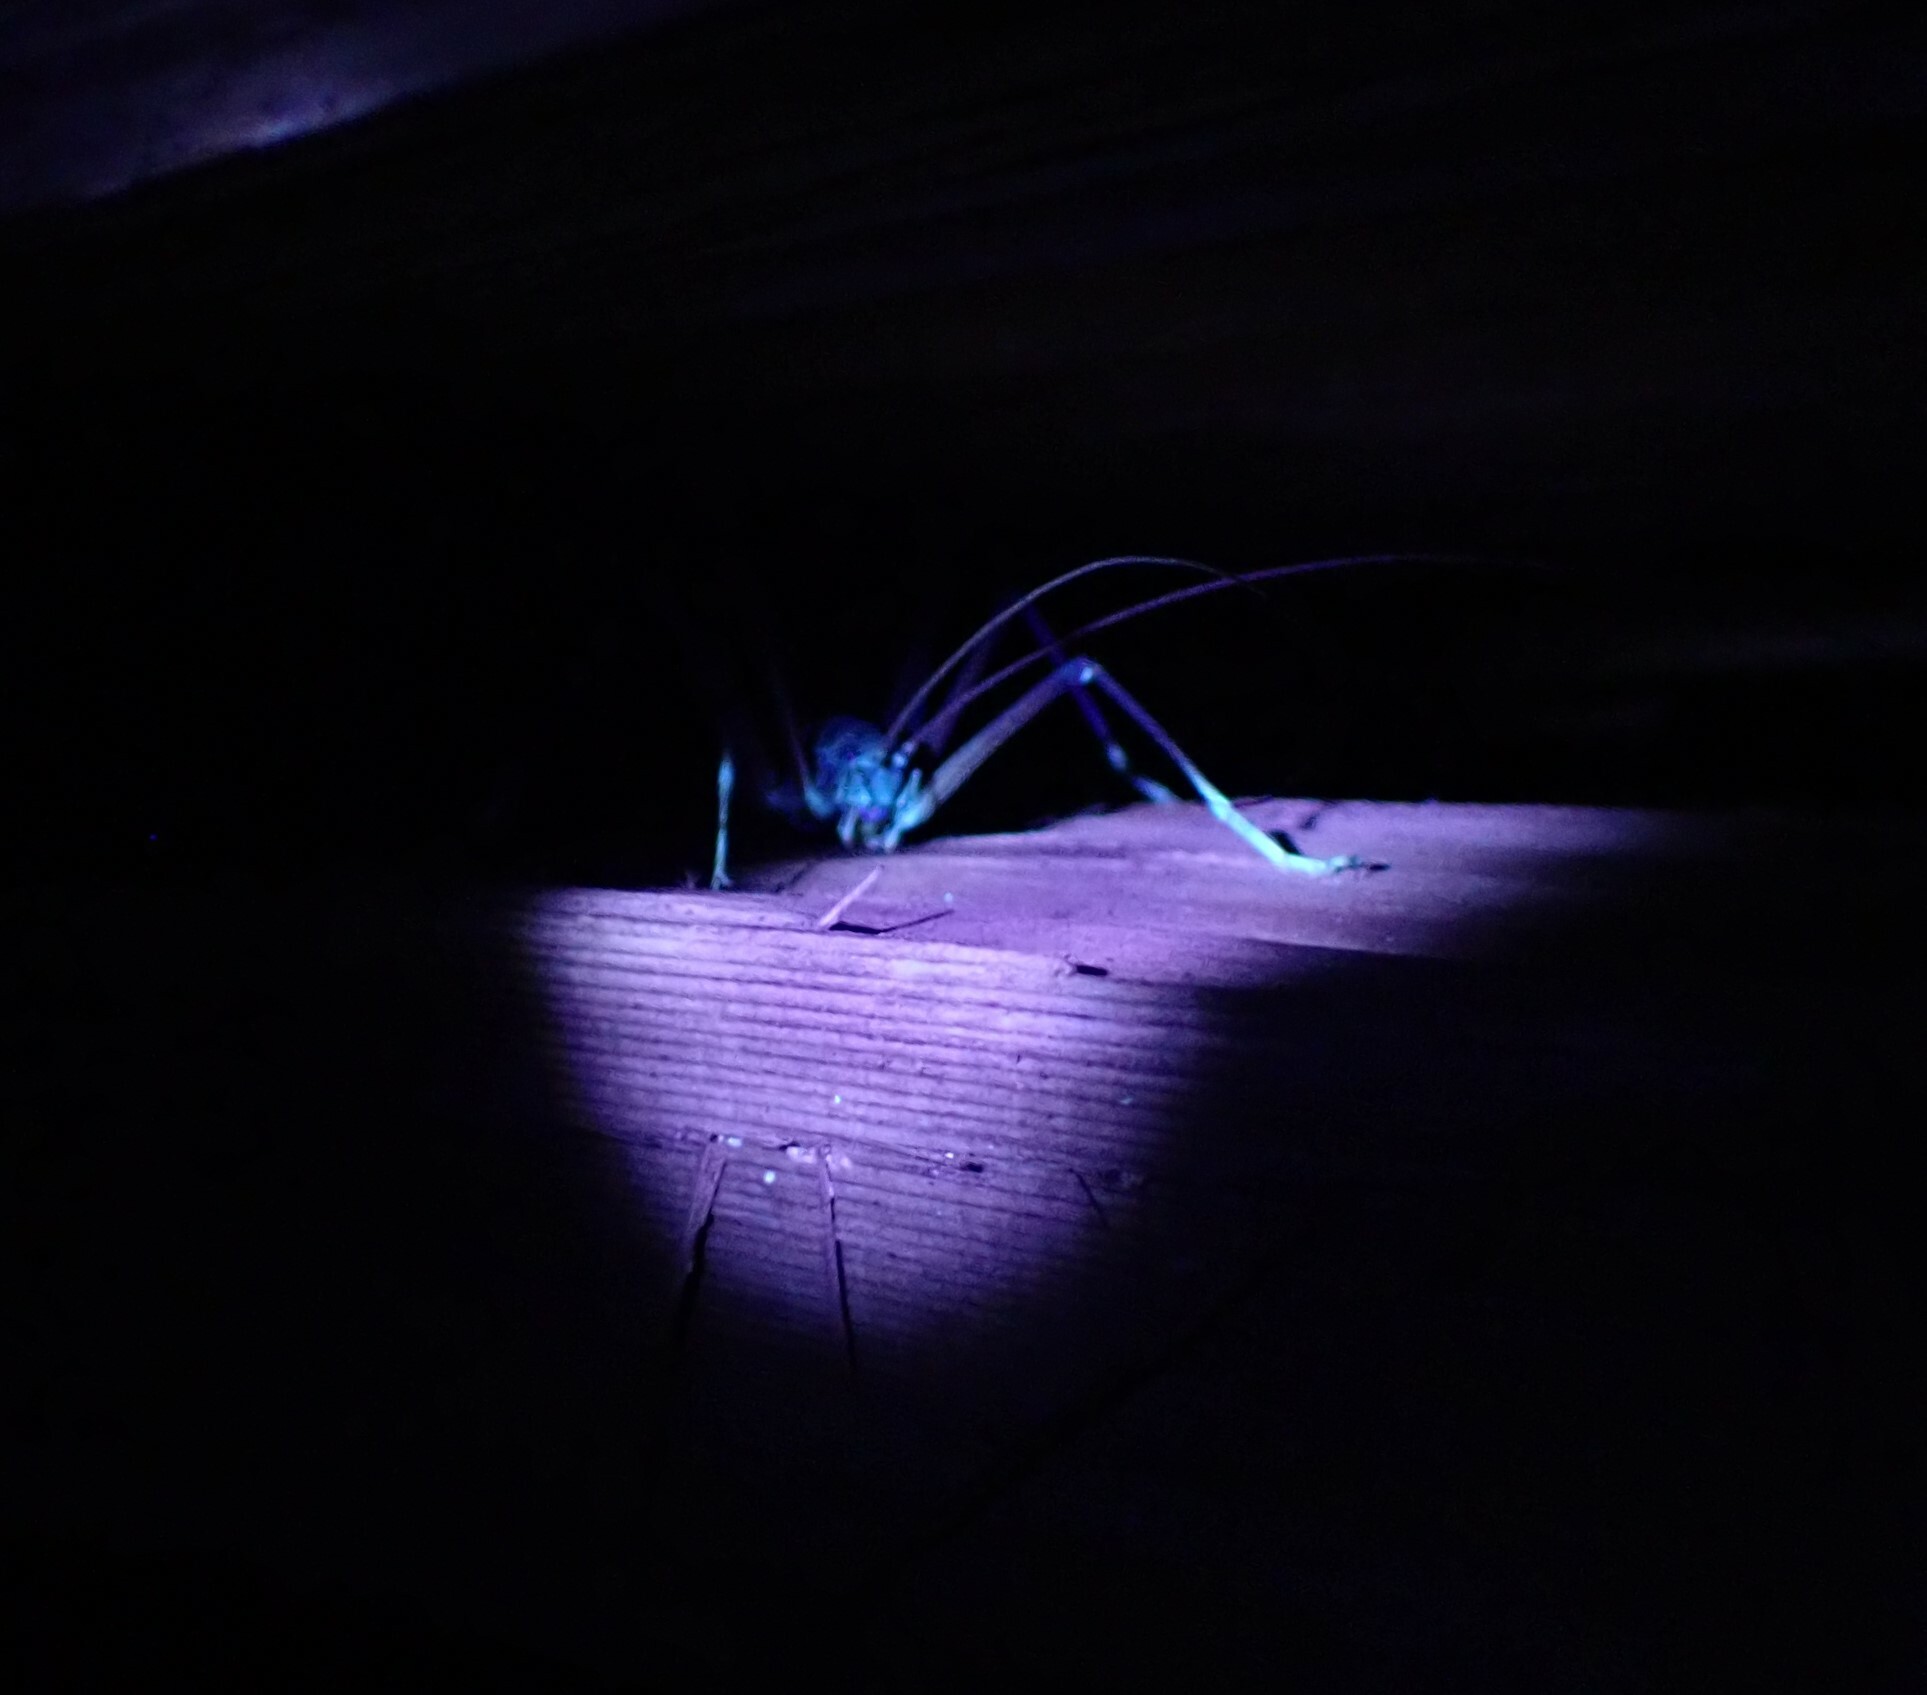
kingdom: Animalia
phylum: Arthropoda
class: Insecta
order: Orthoptera
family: Rhaphidophoridae
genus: Tropidischia
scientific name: Tropidischia xanthostoma
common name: Square-legged camel cricket
